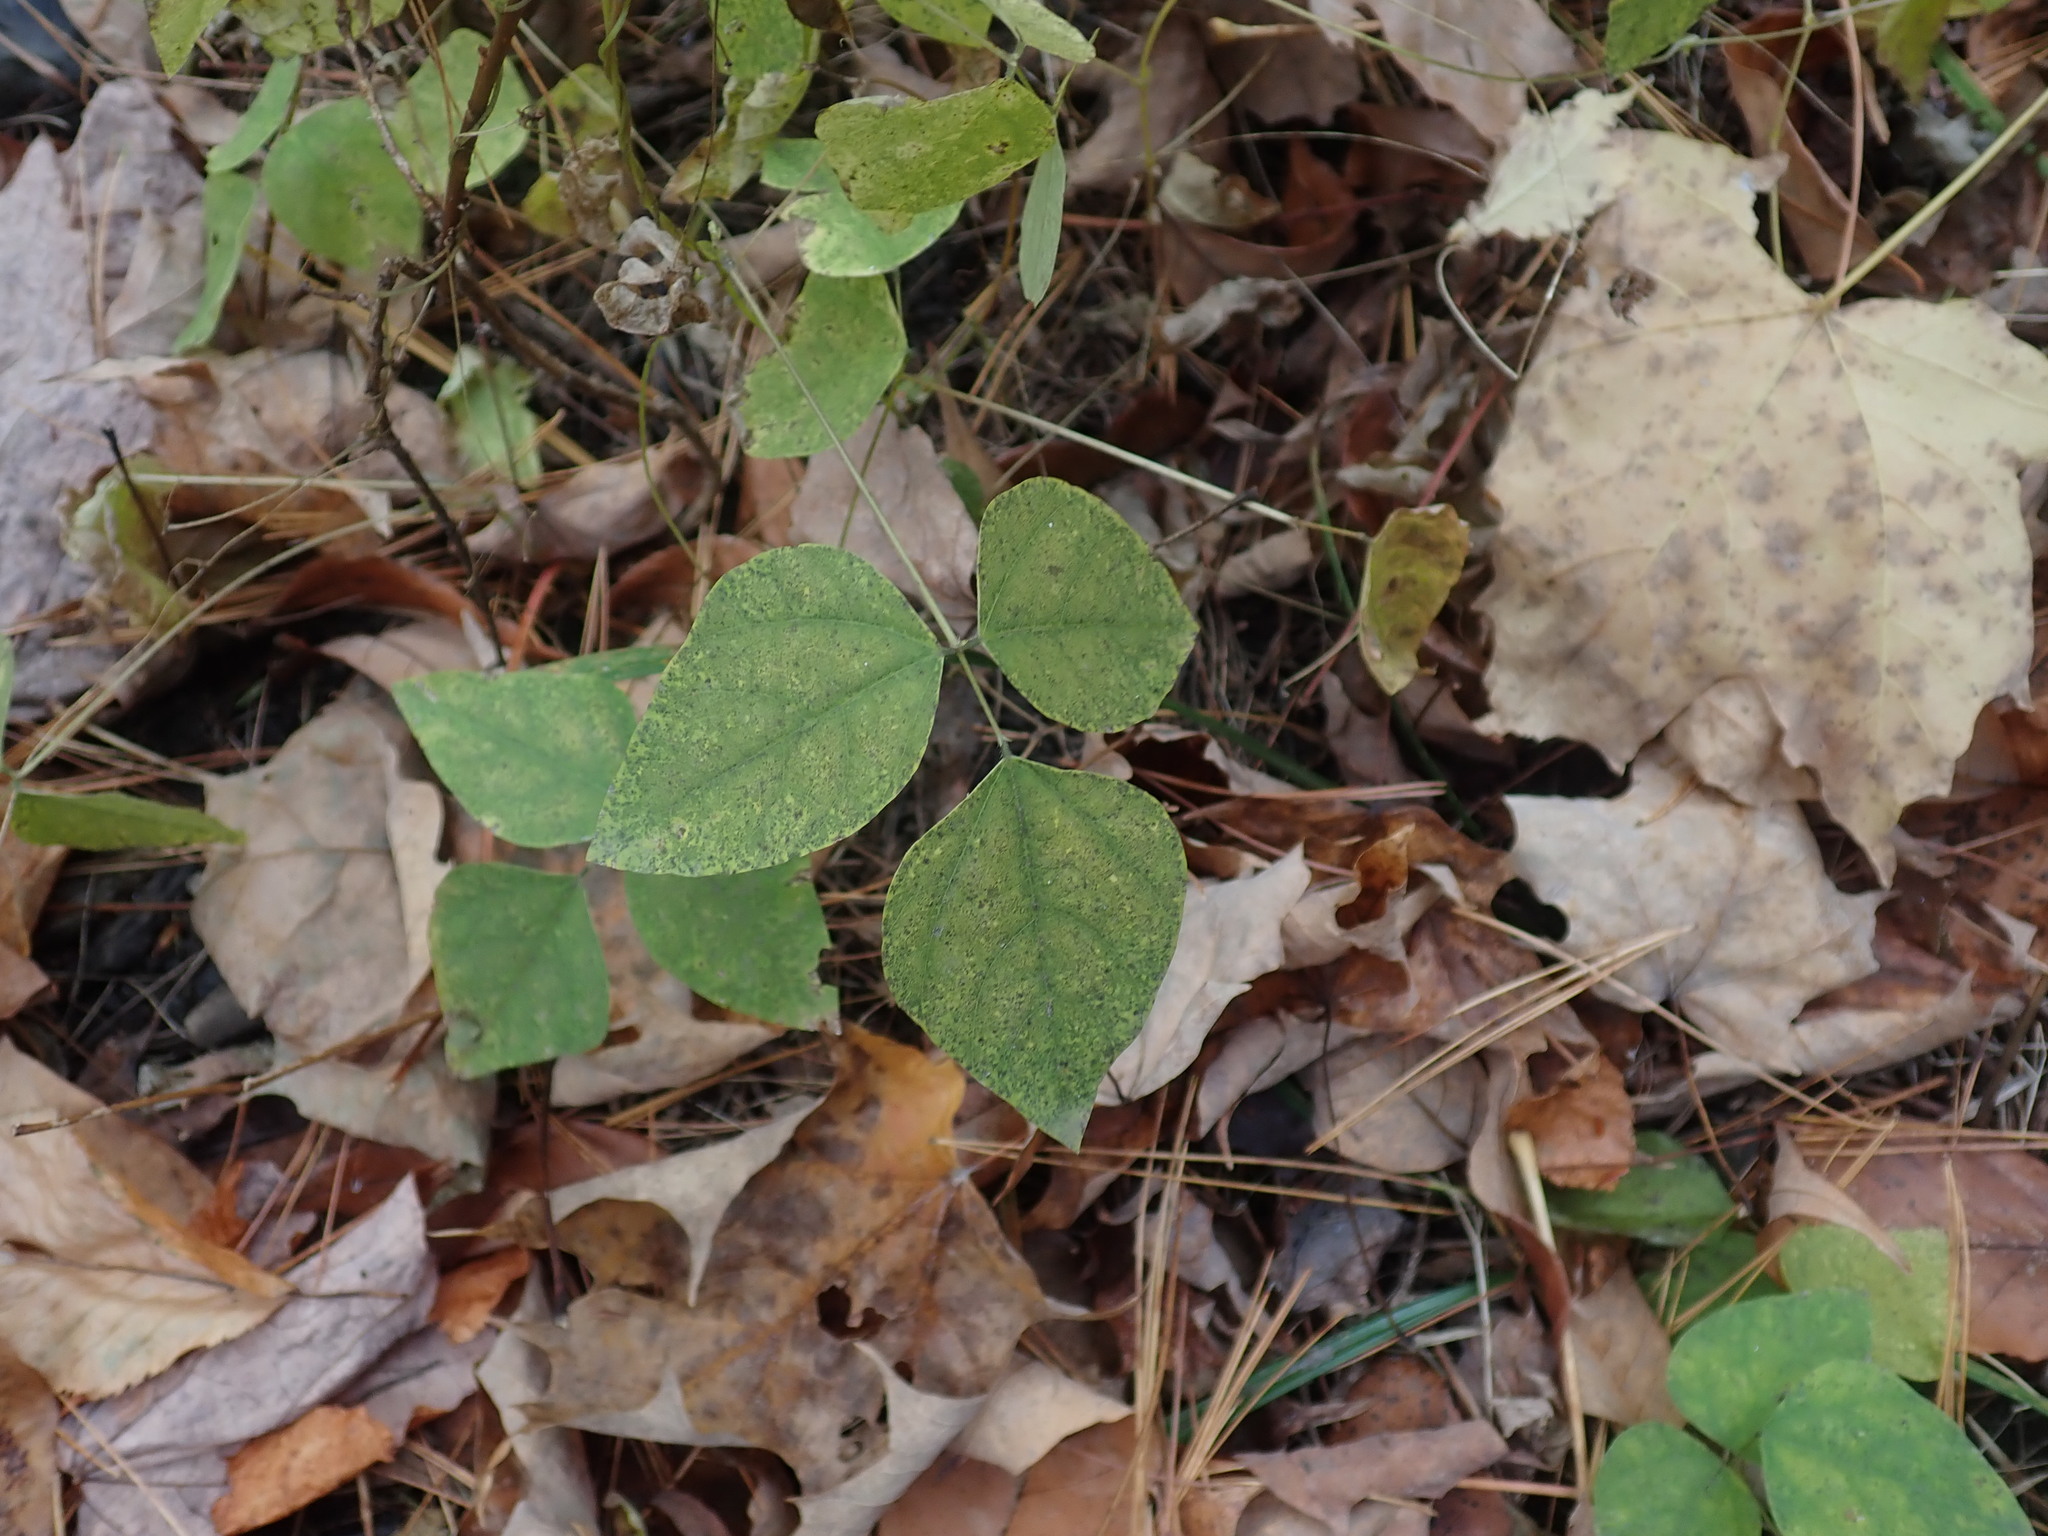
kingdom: Plantae
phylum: Tracheophyta
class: Magnoliopsida
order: Fabales
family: Fabaceae
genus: Amphicarpaea
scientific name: Amphicarpaea bracteata
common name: American hog peanut
